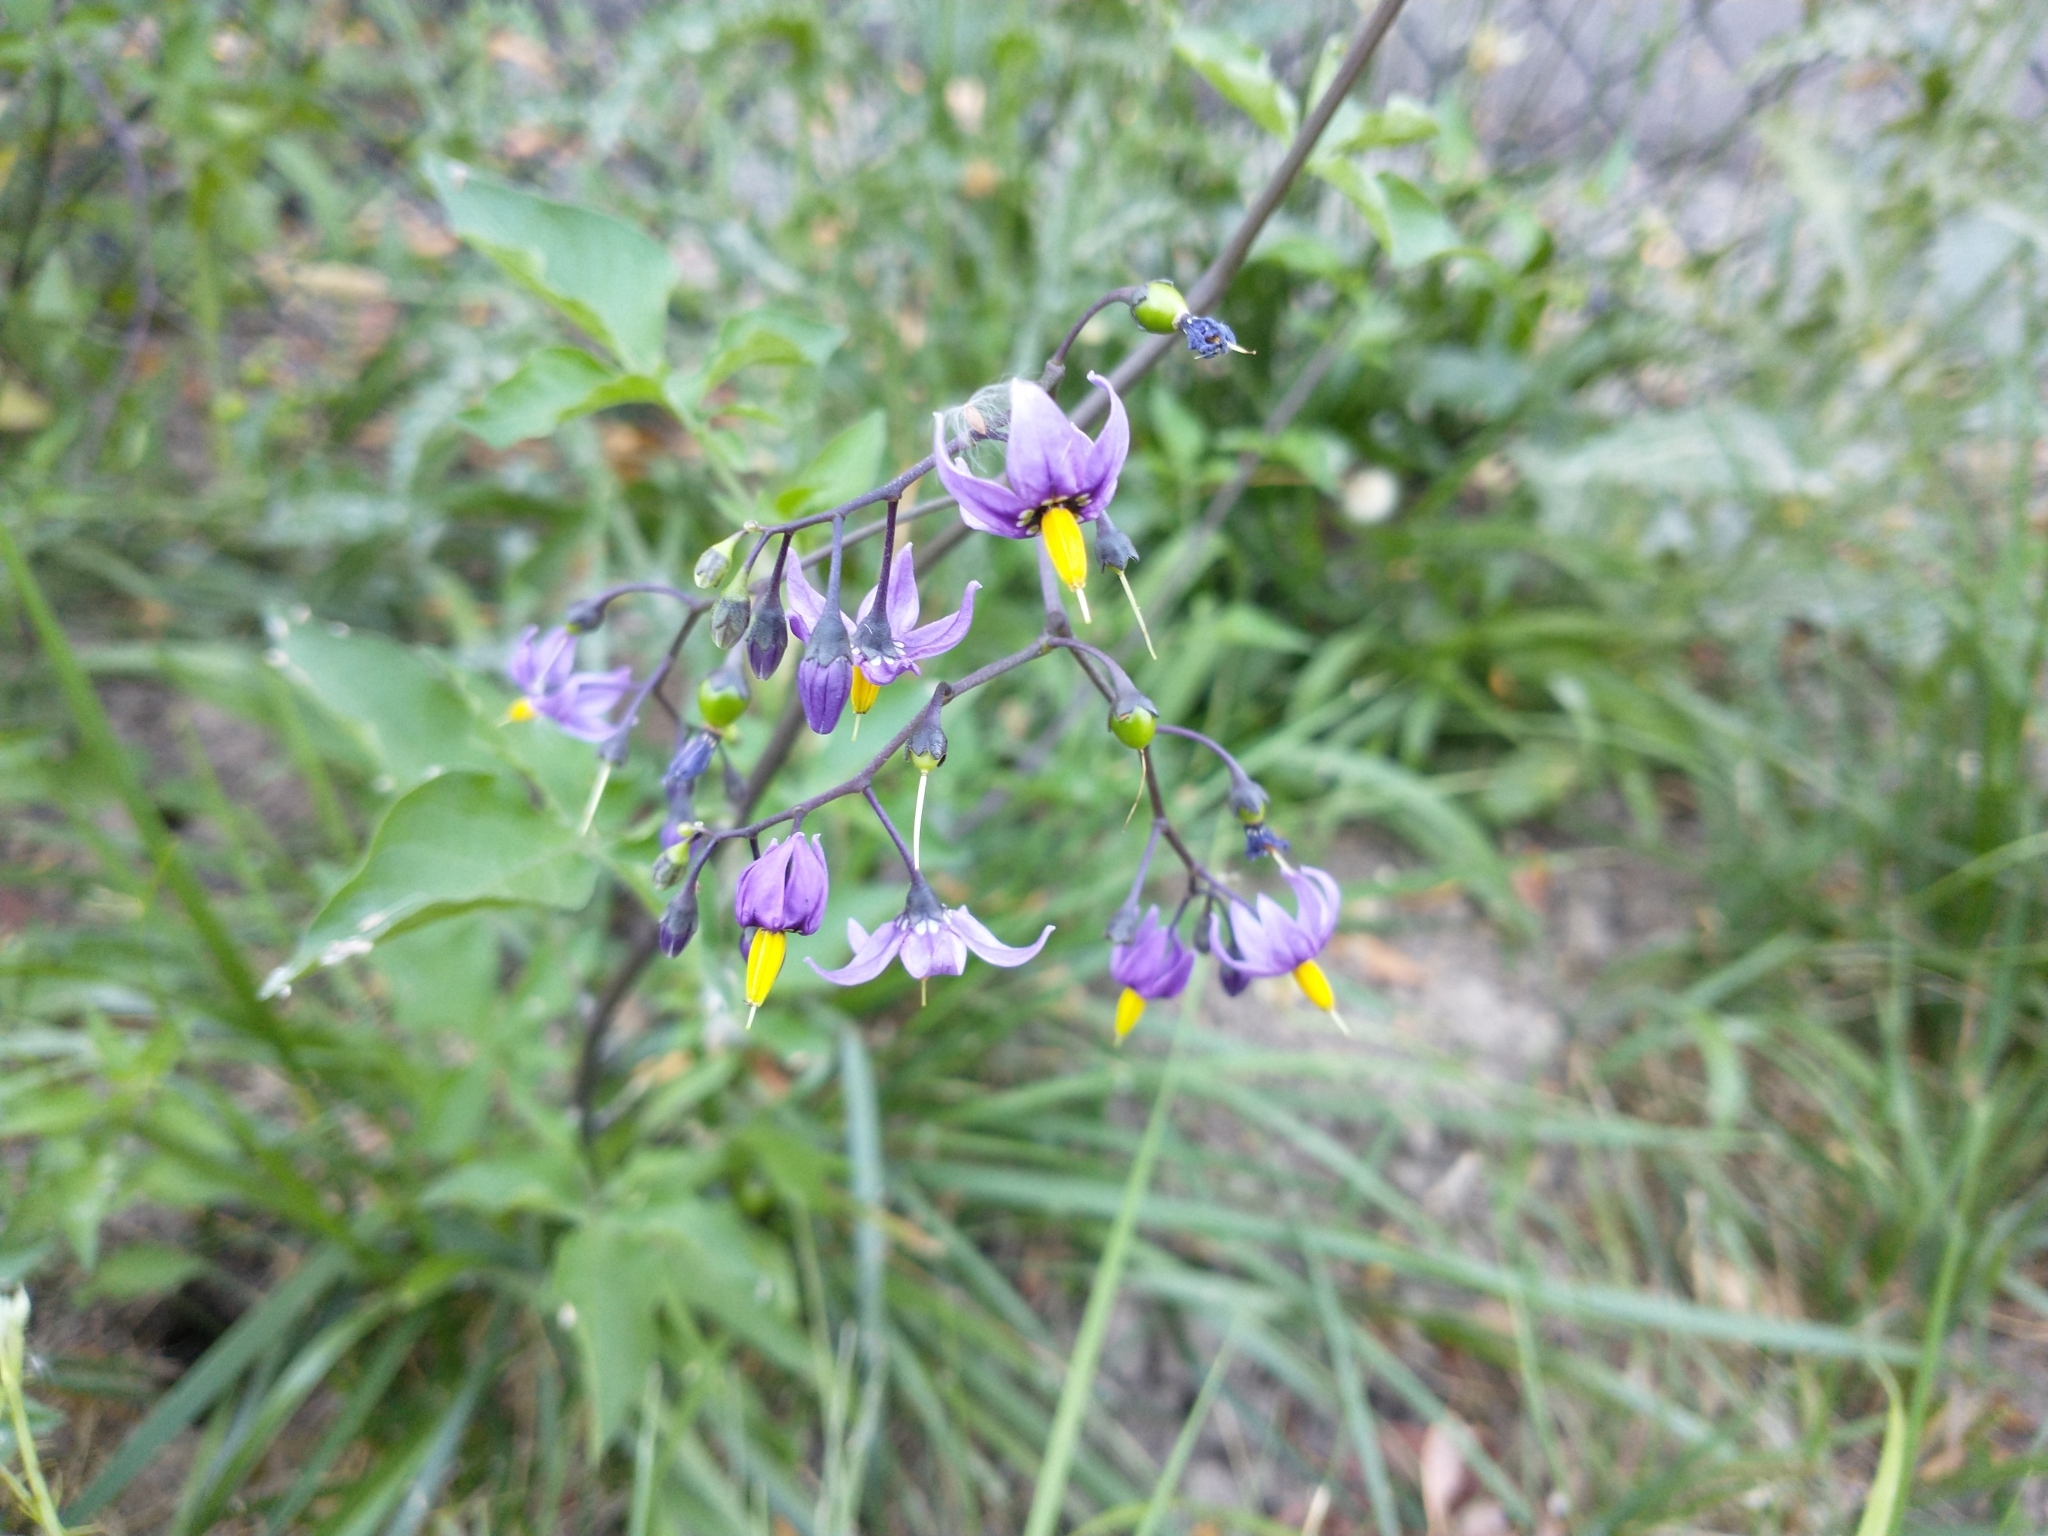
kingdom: Plantae
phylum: Tracheophyta
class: Magnoliopsida
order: Solanales
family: Solanaceae
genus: Solanum
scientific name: Solanum dulcamara
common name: Climbing nightshade
